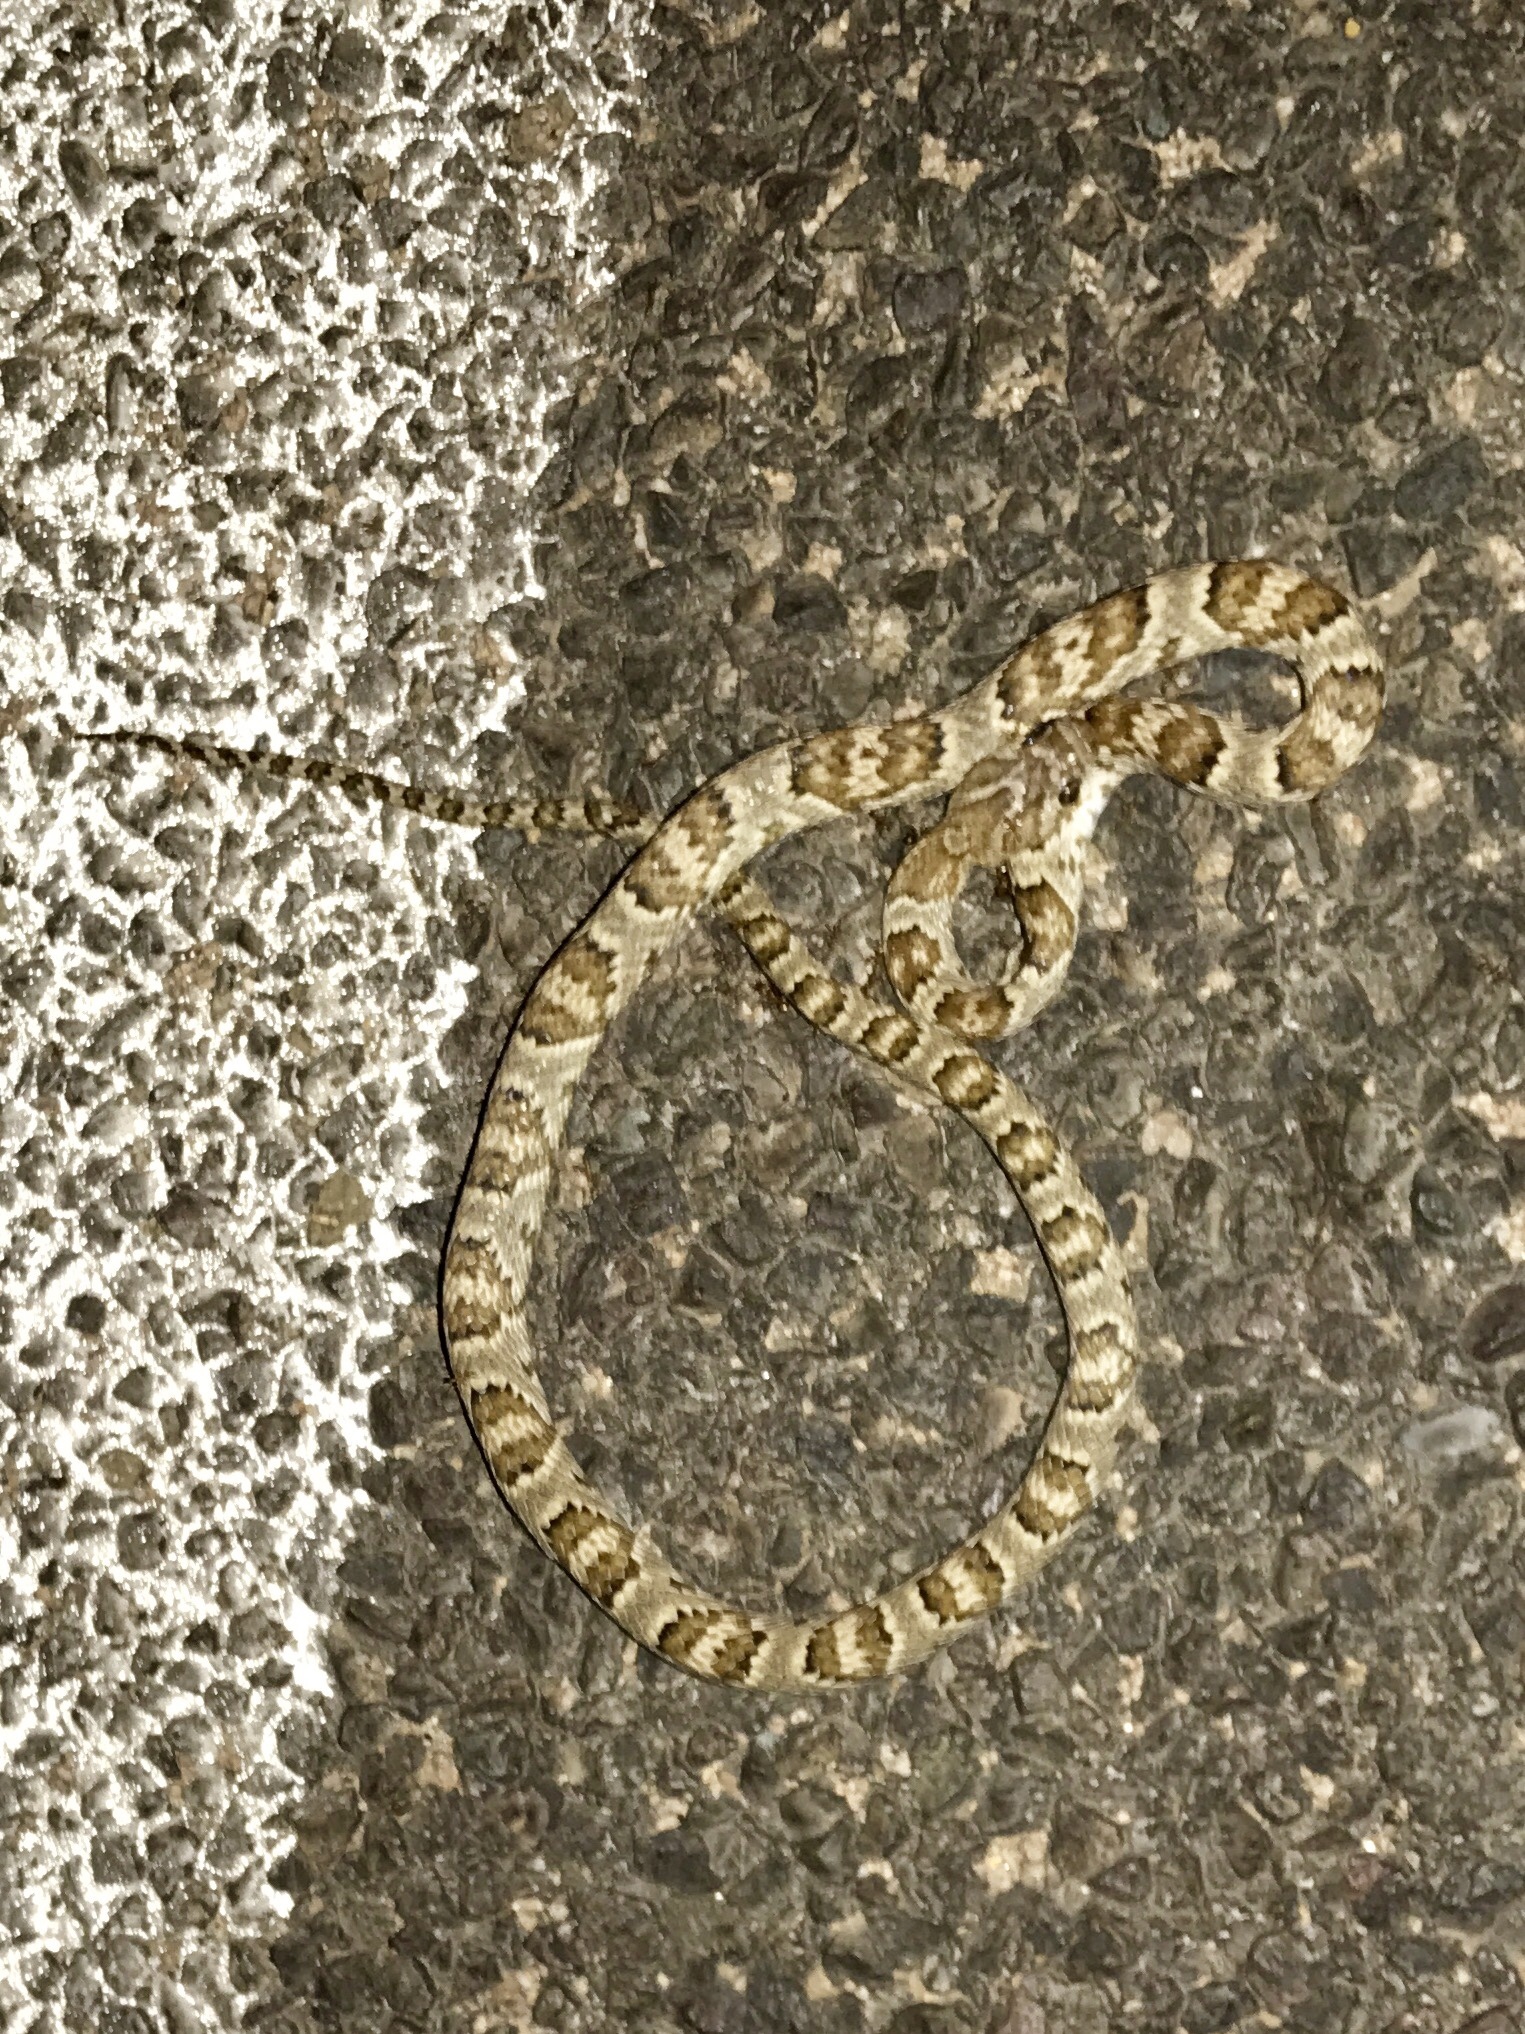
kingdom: Animalia
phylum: Chordata
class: Squamata
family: Colubridae
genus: Trimorphodon
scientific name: Trimorphodon lambda
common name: Sonoran lyre snake
